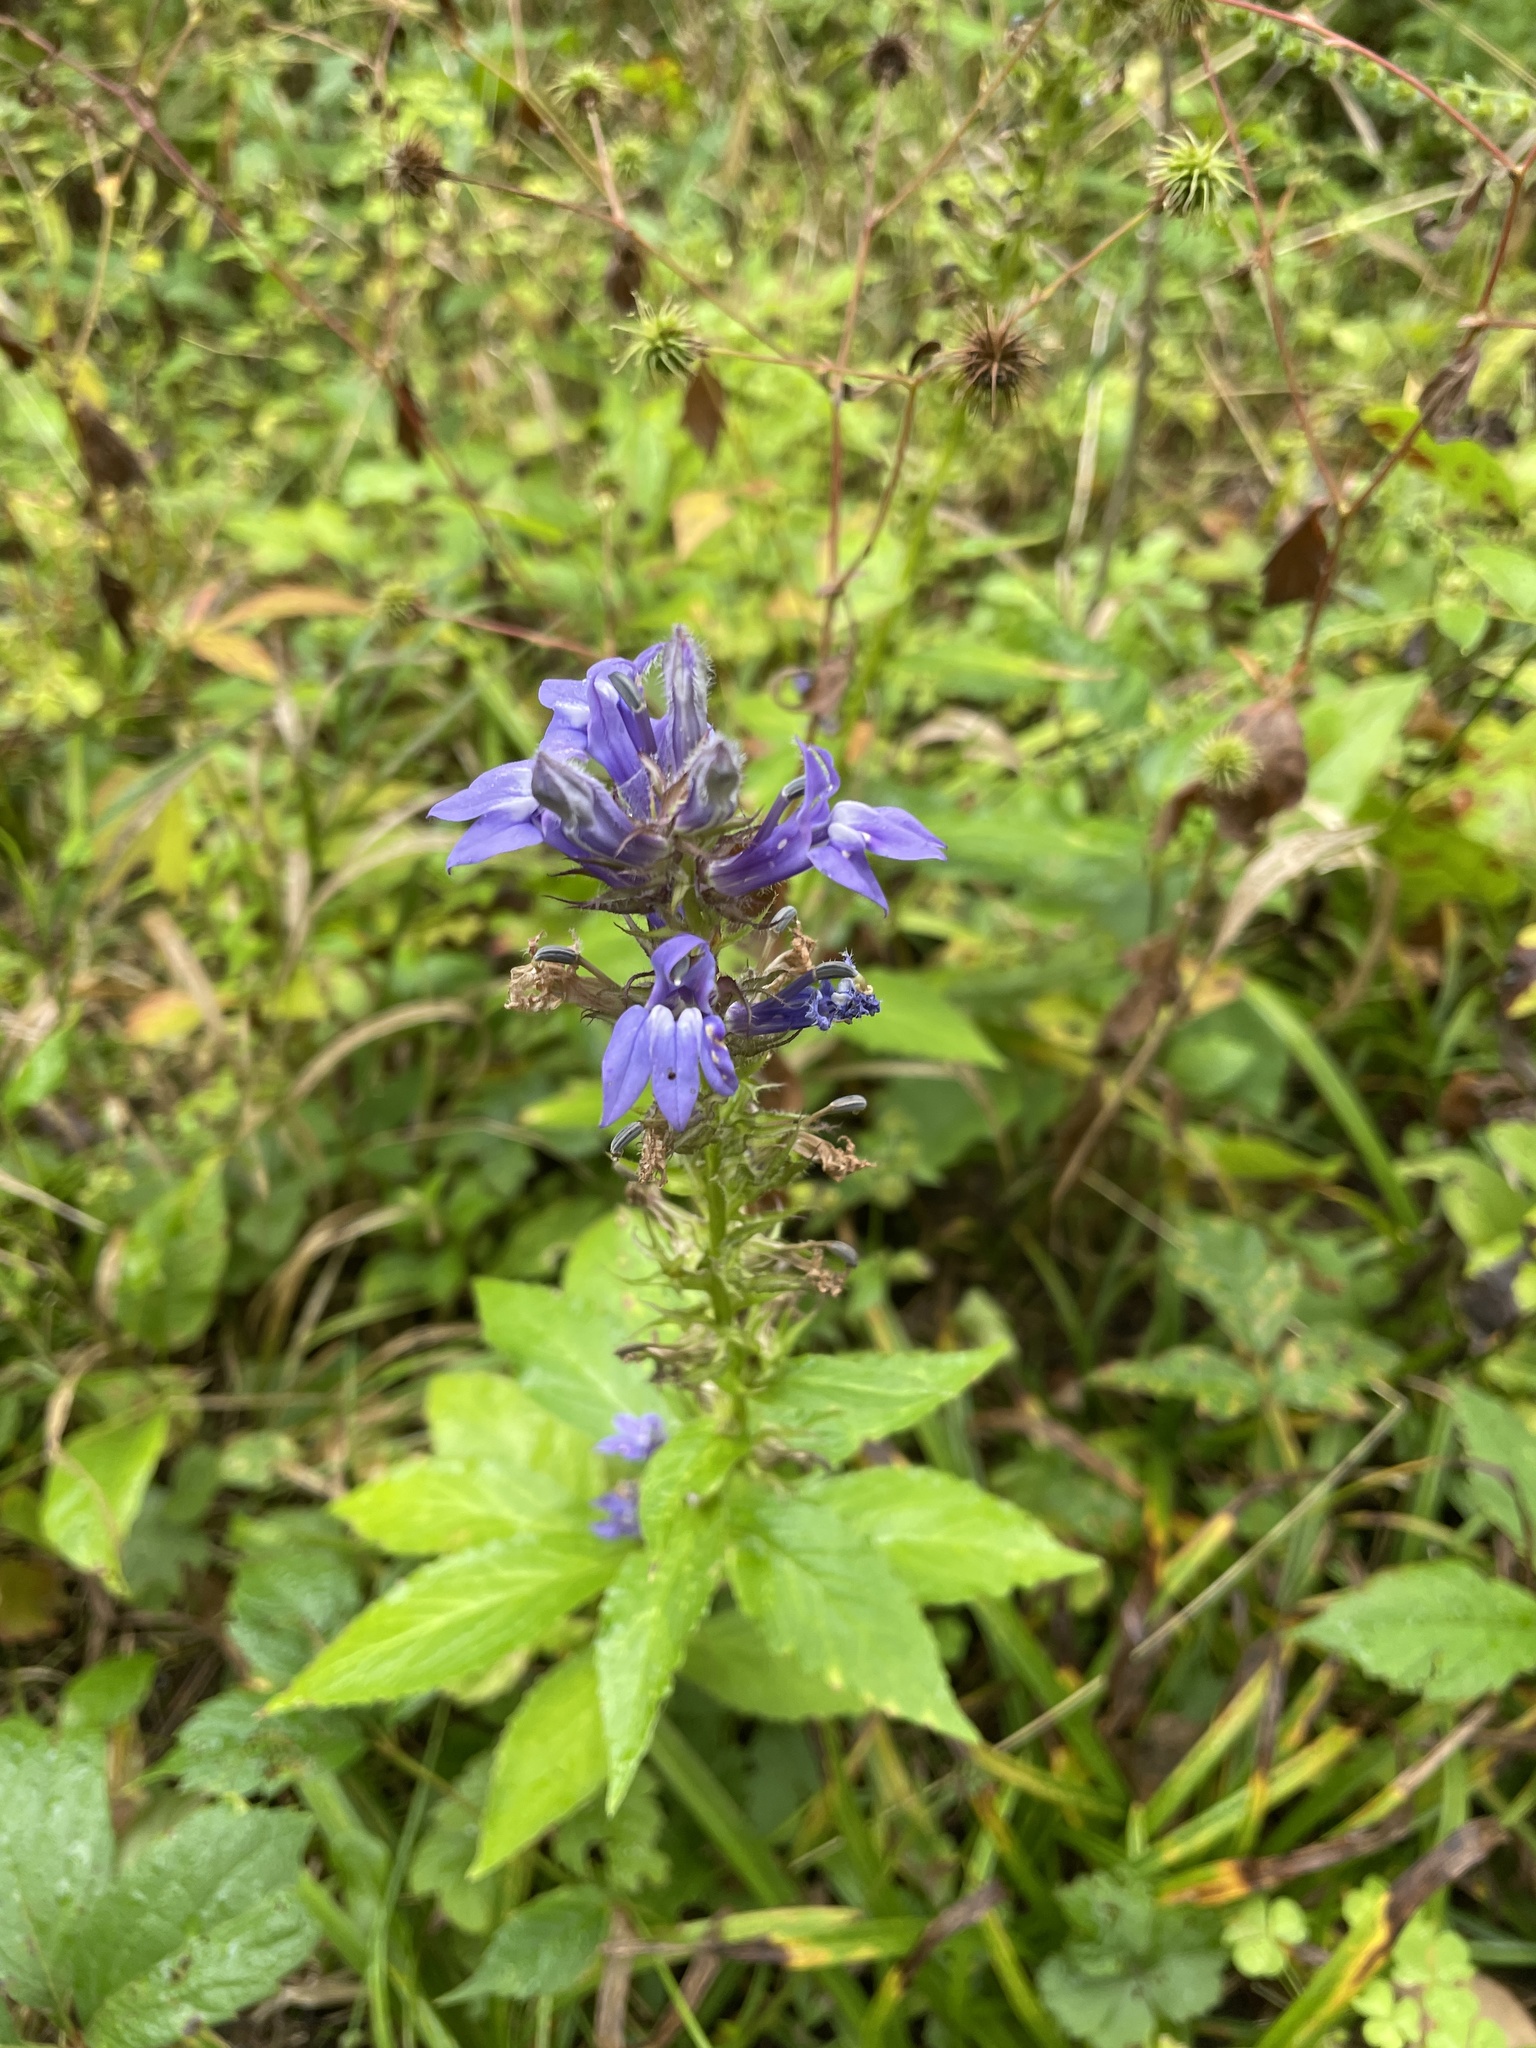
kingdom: Plantae
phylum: Tracheophyta
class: Magnoliopsida
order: Asterales
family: Campanulaceae
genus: Lobelia
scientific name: Lobelia siphilitica
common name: Great lobelia
